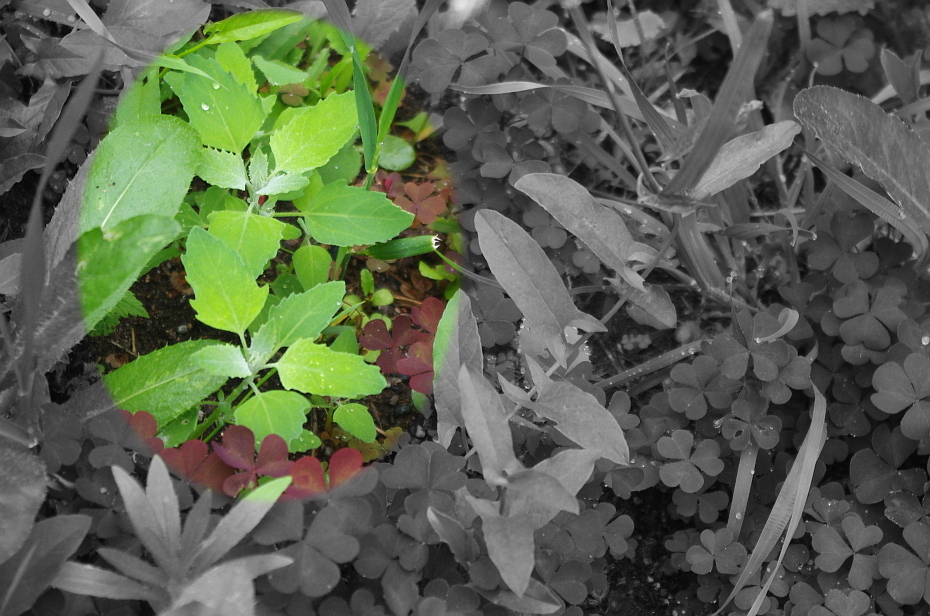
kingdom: Plantae
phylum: Tracheophyta
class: Magnoliopsida
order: Caryophyllales
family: Amaranthaceae
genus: Chenopodium
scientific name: Chenopodium album
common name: Fat-hen
